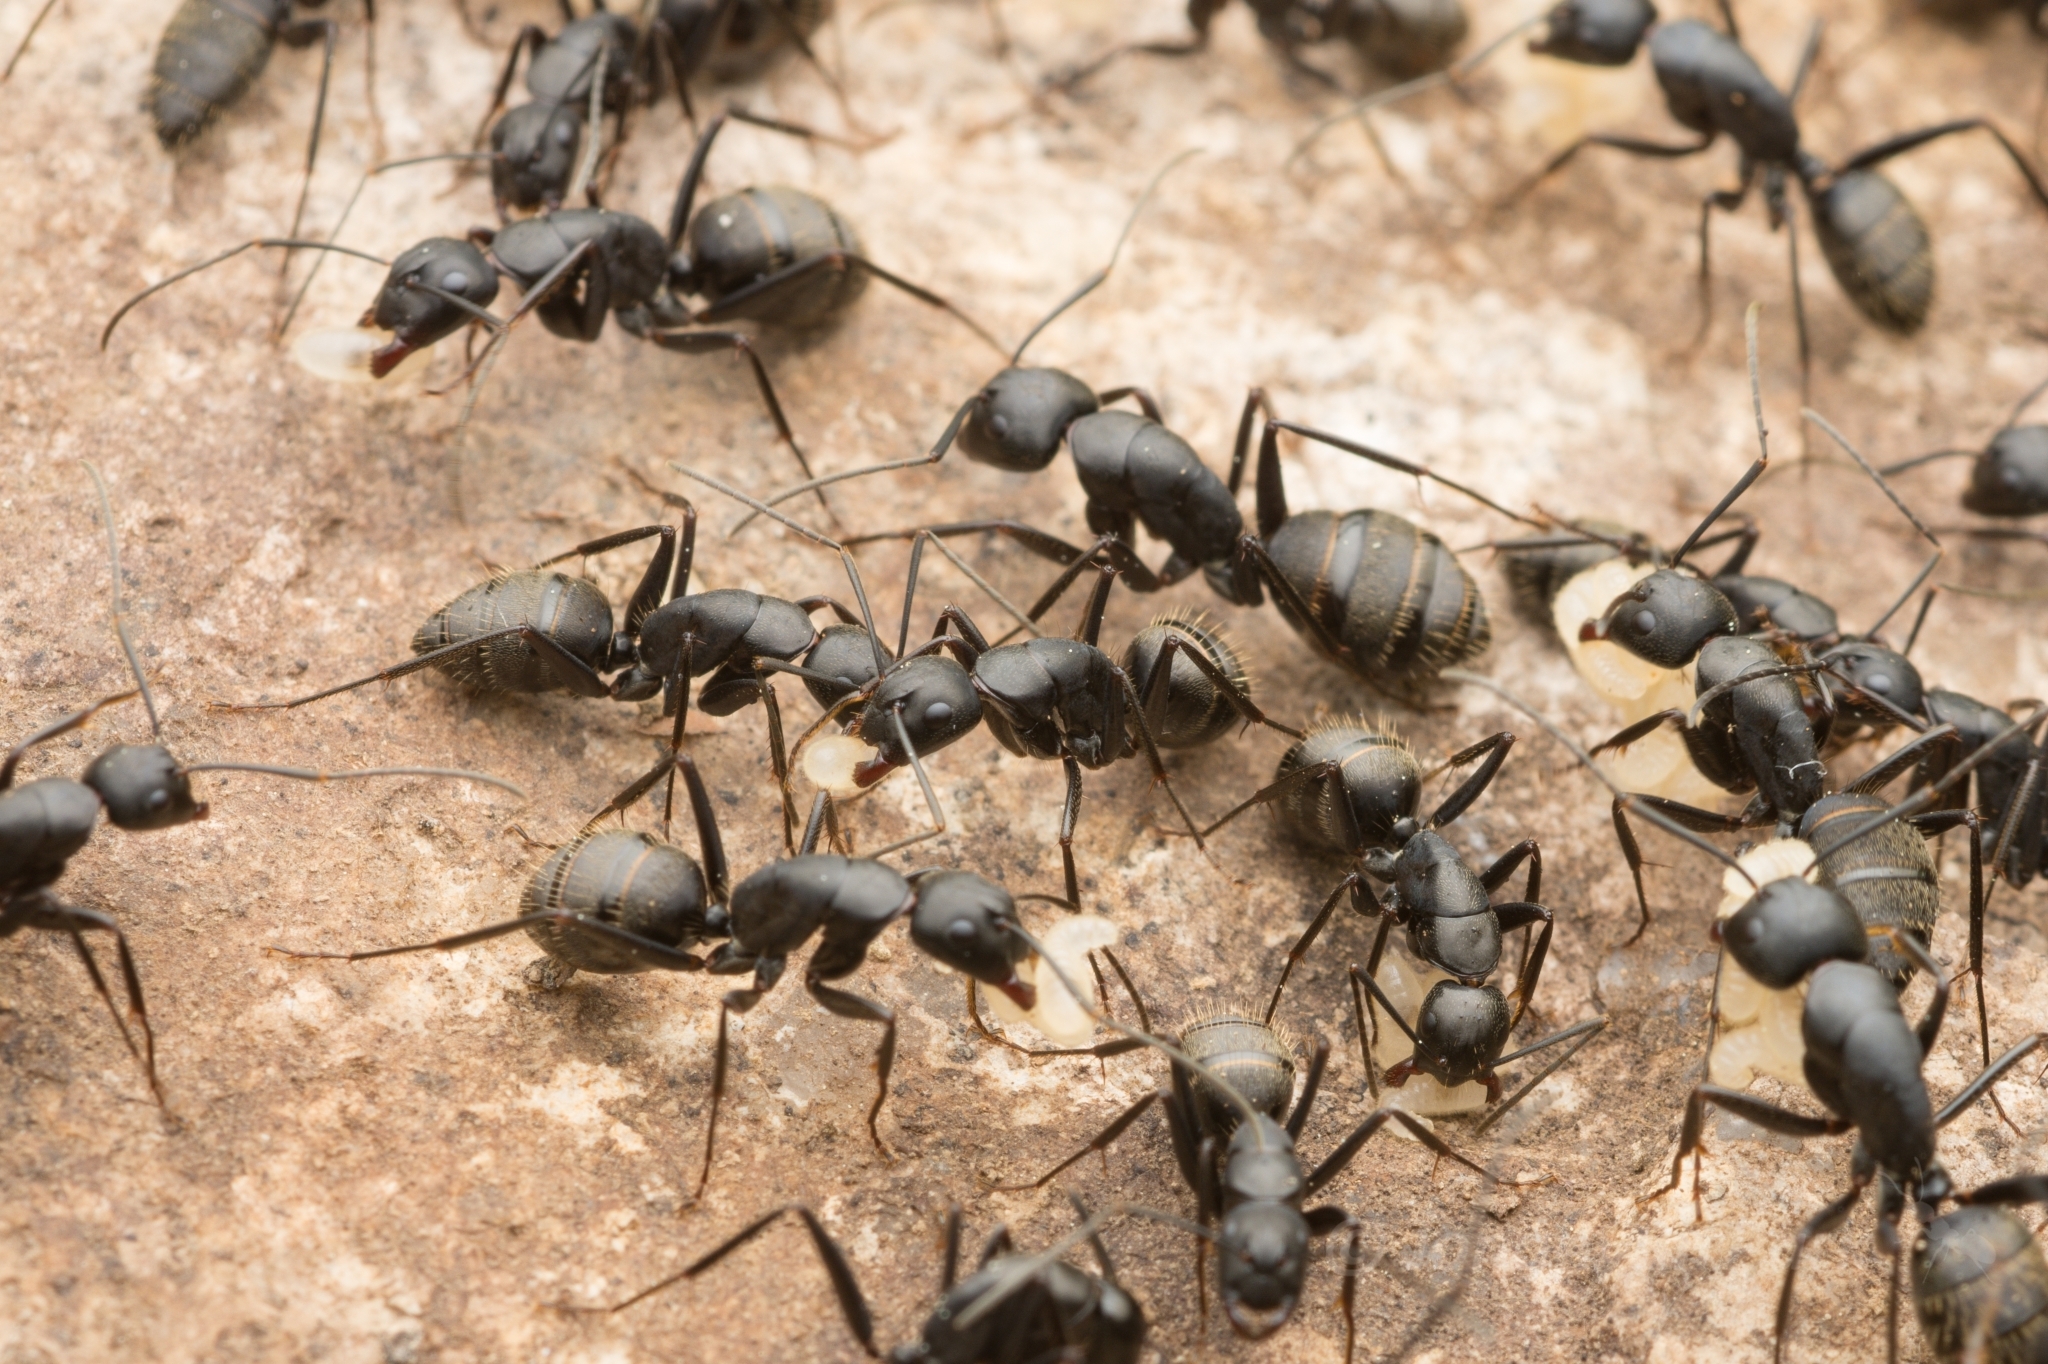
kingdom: Animalia
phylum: Arthropoda
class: Insecta
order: Hymenoptera
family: Formicidae
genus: Camponotus
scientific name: Camponotus japonicus
